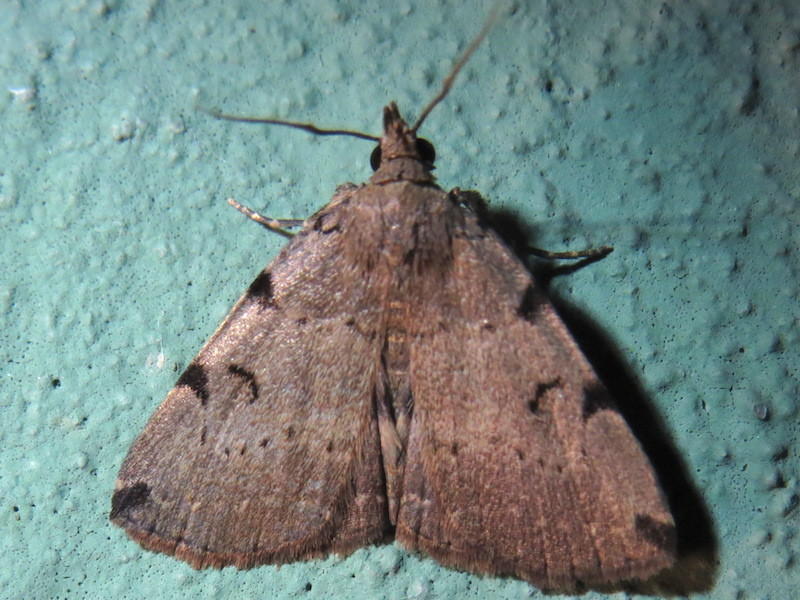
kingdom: Animalia
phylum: Arthropoda
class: Insecta
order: Lepidoptera
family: Erebidae
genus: Zanclognatha
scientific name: Zanclognatha lituralis
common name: Lettered fan-foot
